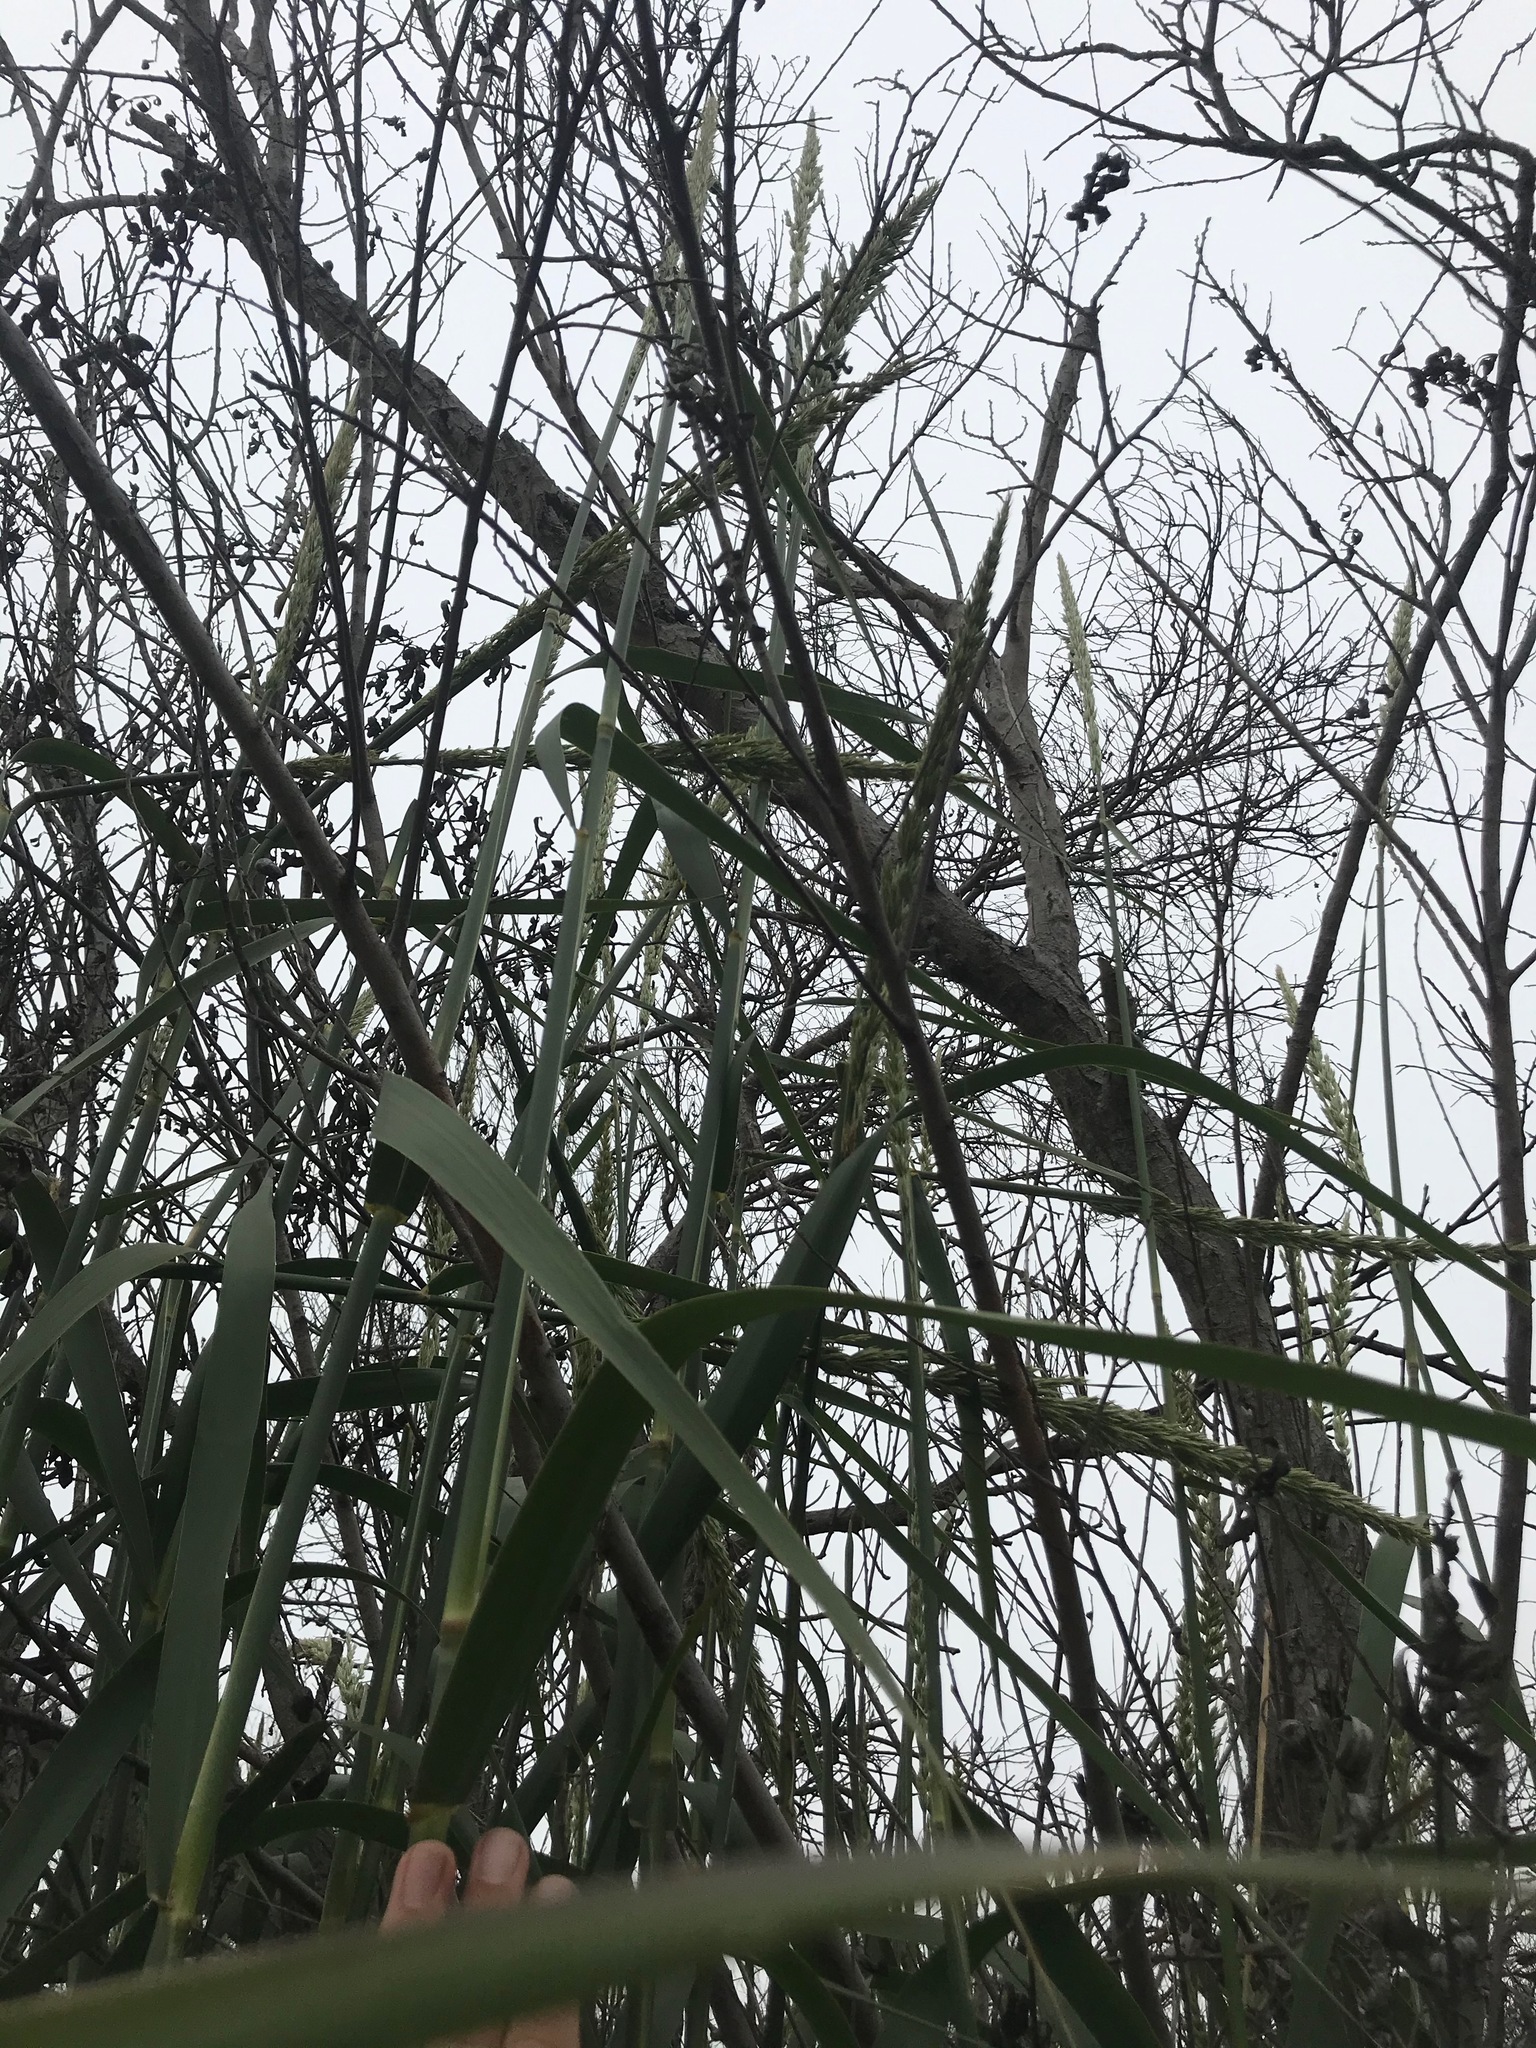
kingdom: Plantae
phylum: Tracheophyta
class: Liliopsida
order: Poales
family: Poaceae
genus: Leymus
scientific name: Leymus condensatus
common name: Giant wild rye
